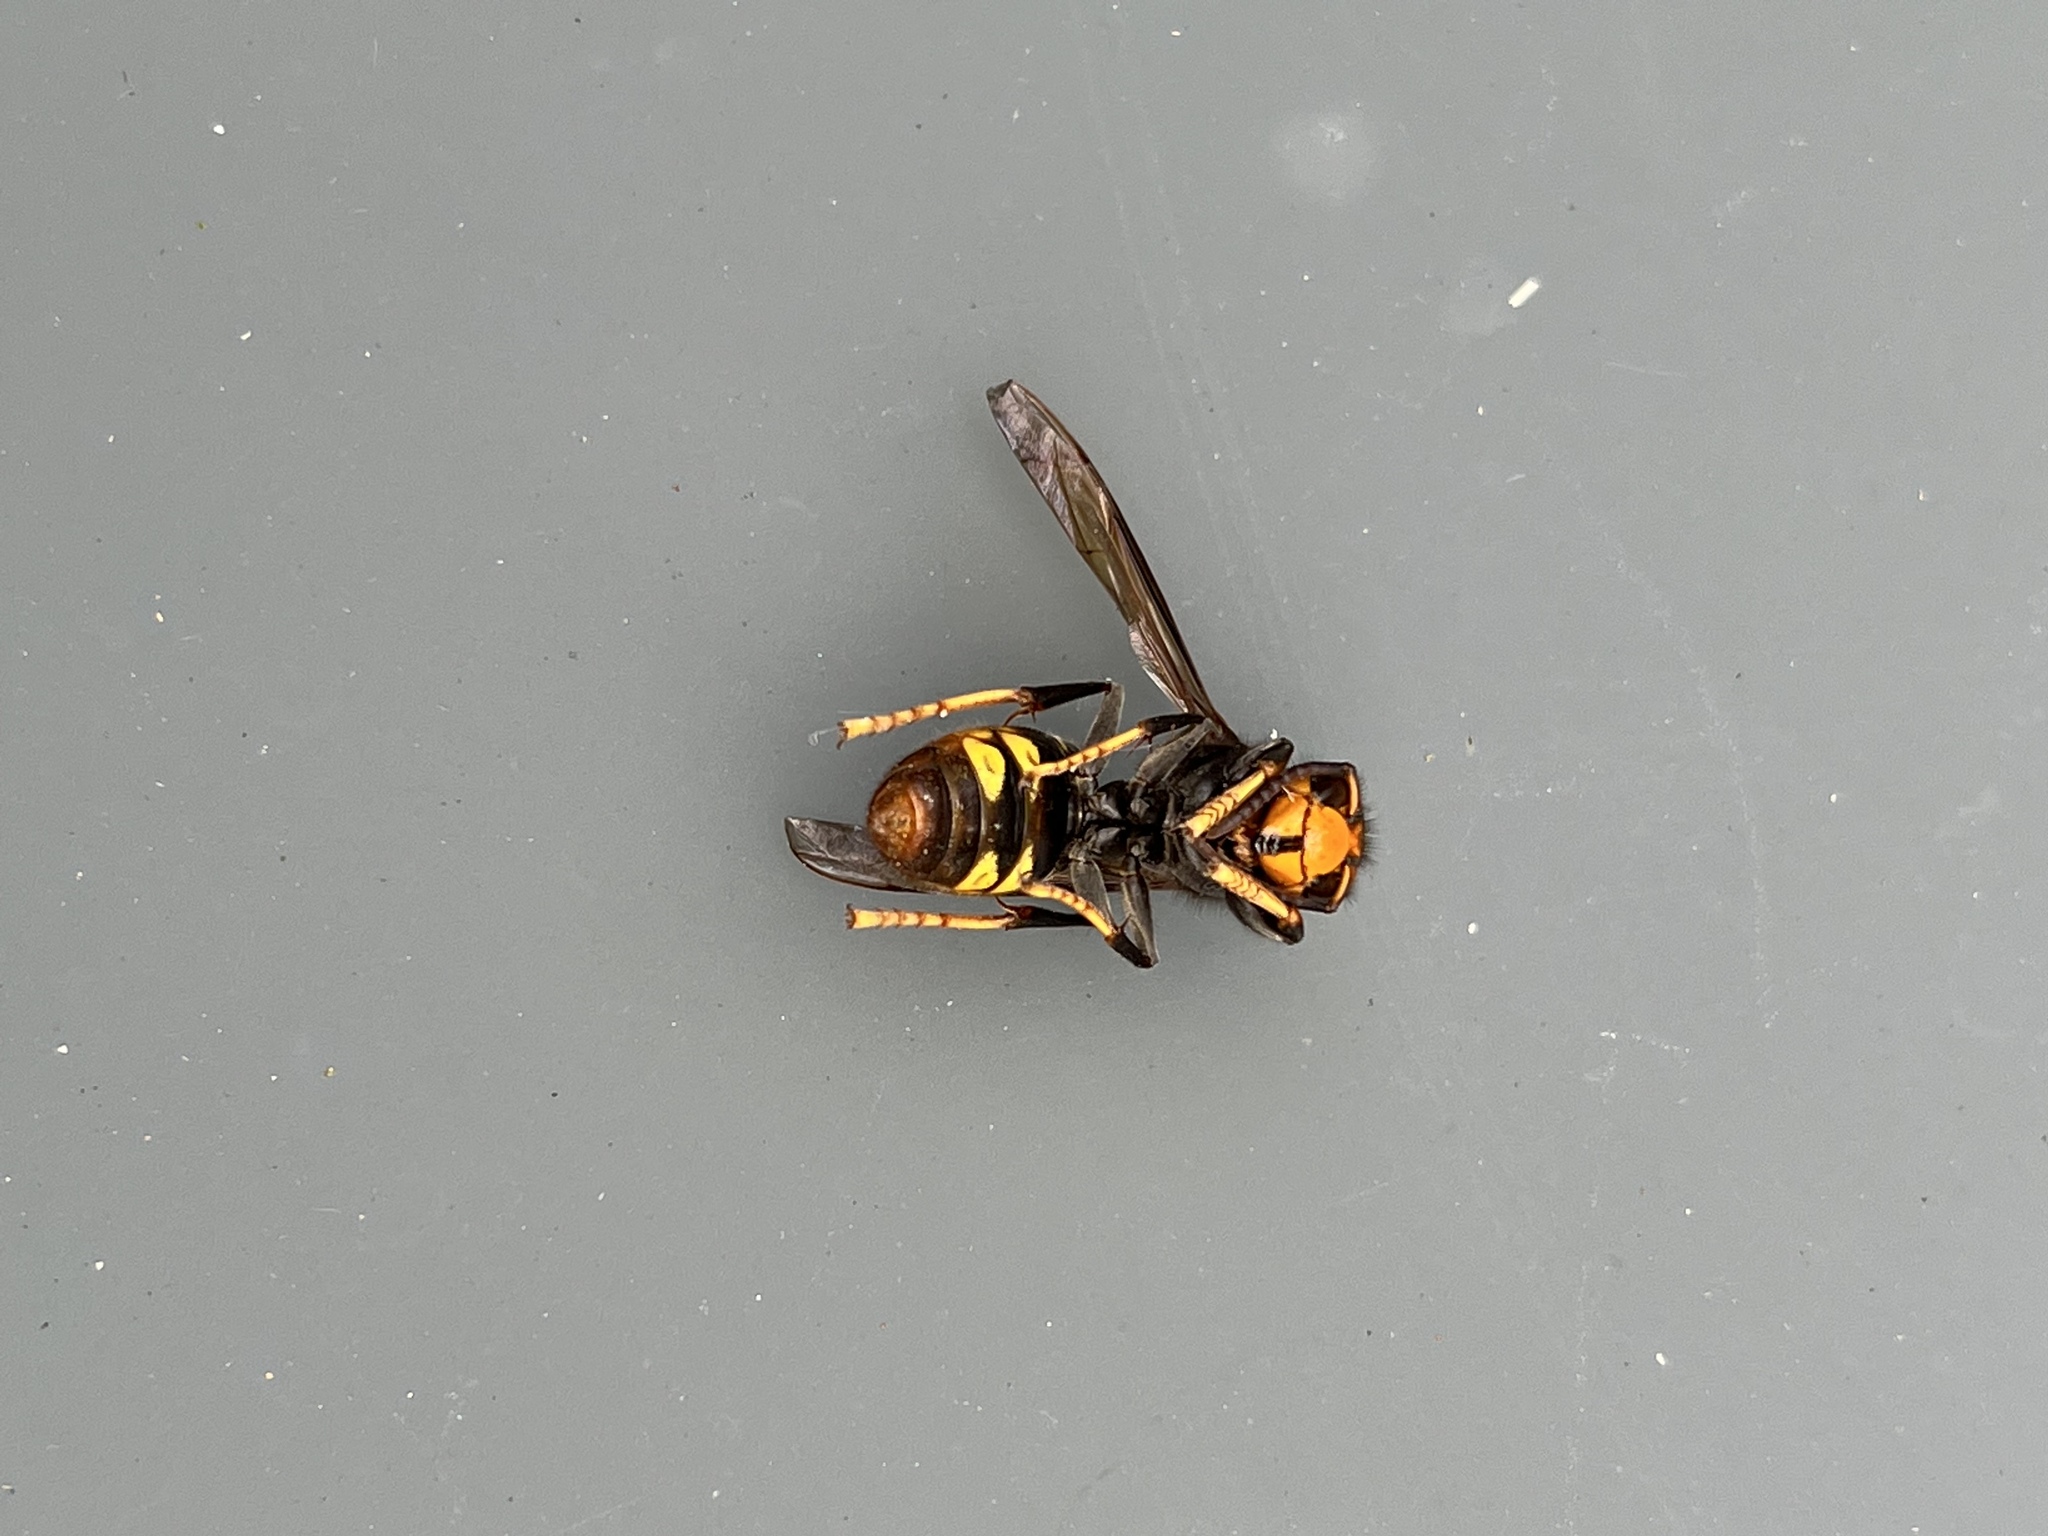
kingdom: Animalia
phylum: Arthropoda
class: Insecta
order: Hymenoptera
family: Vespidae
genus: Vespa
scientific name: Vespa velutina
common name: Asian hornet
